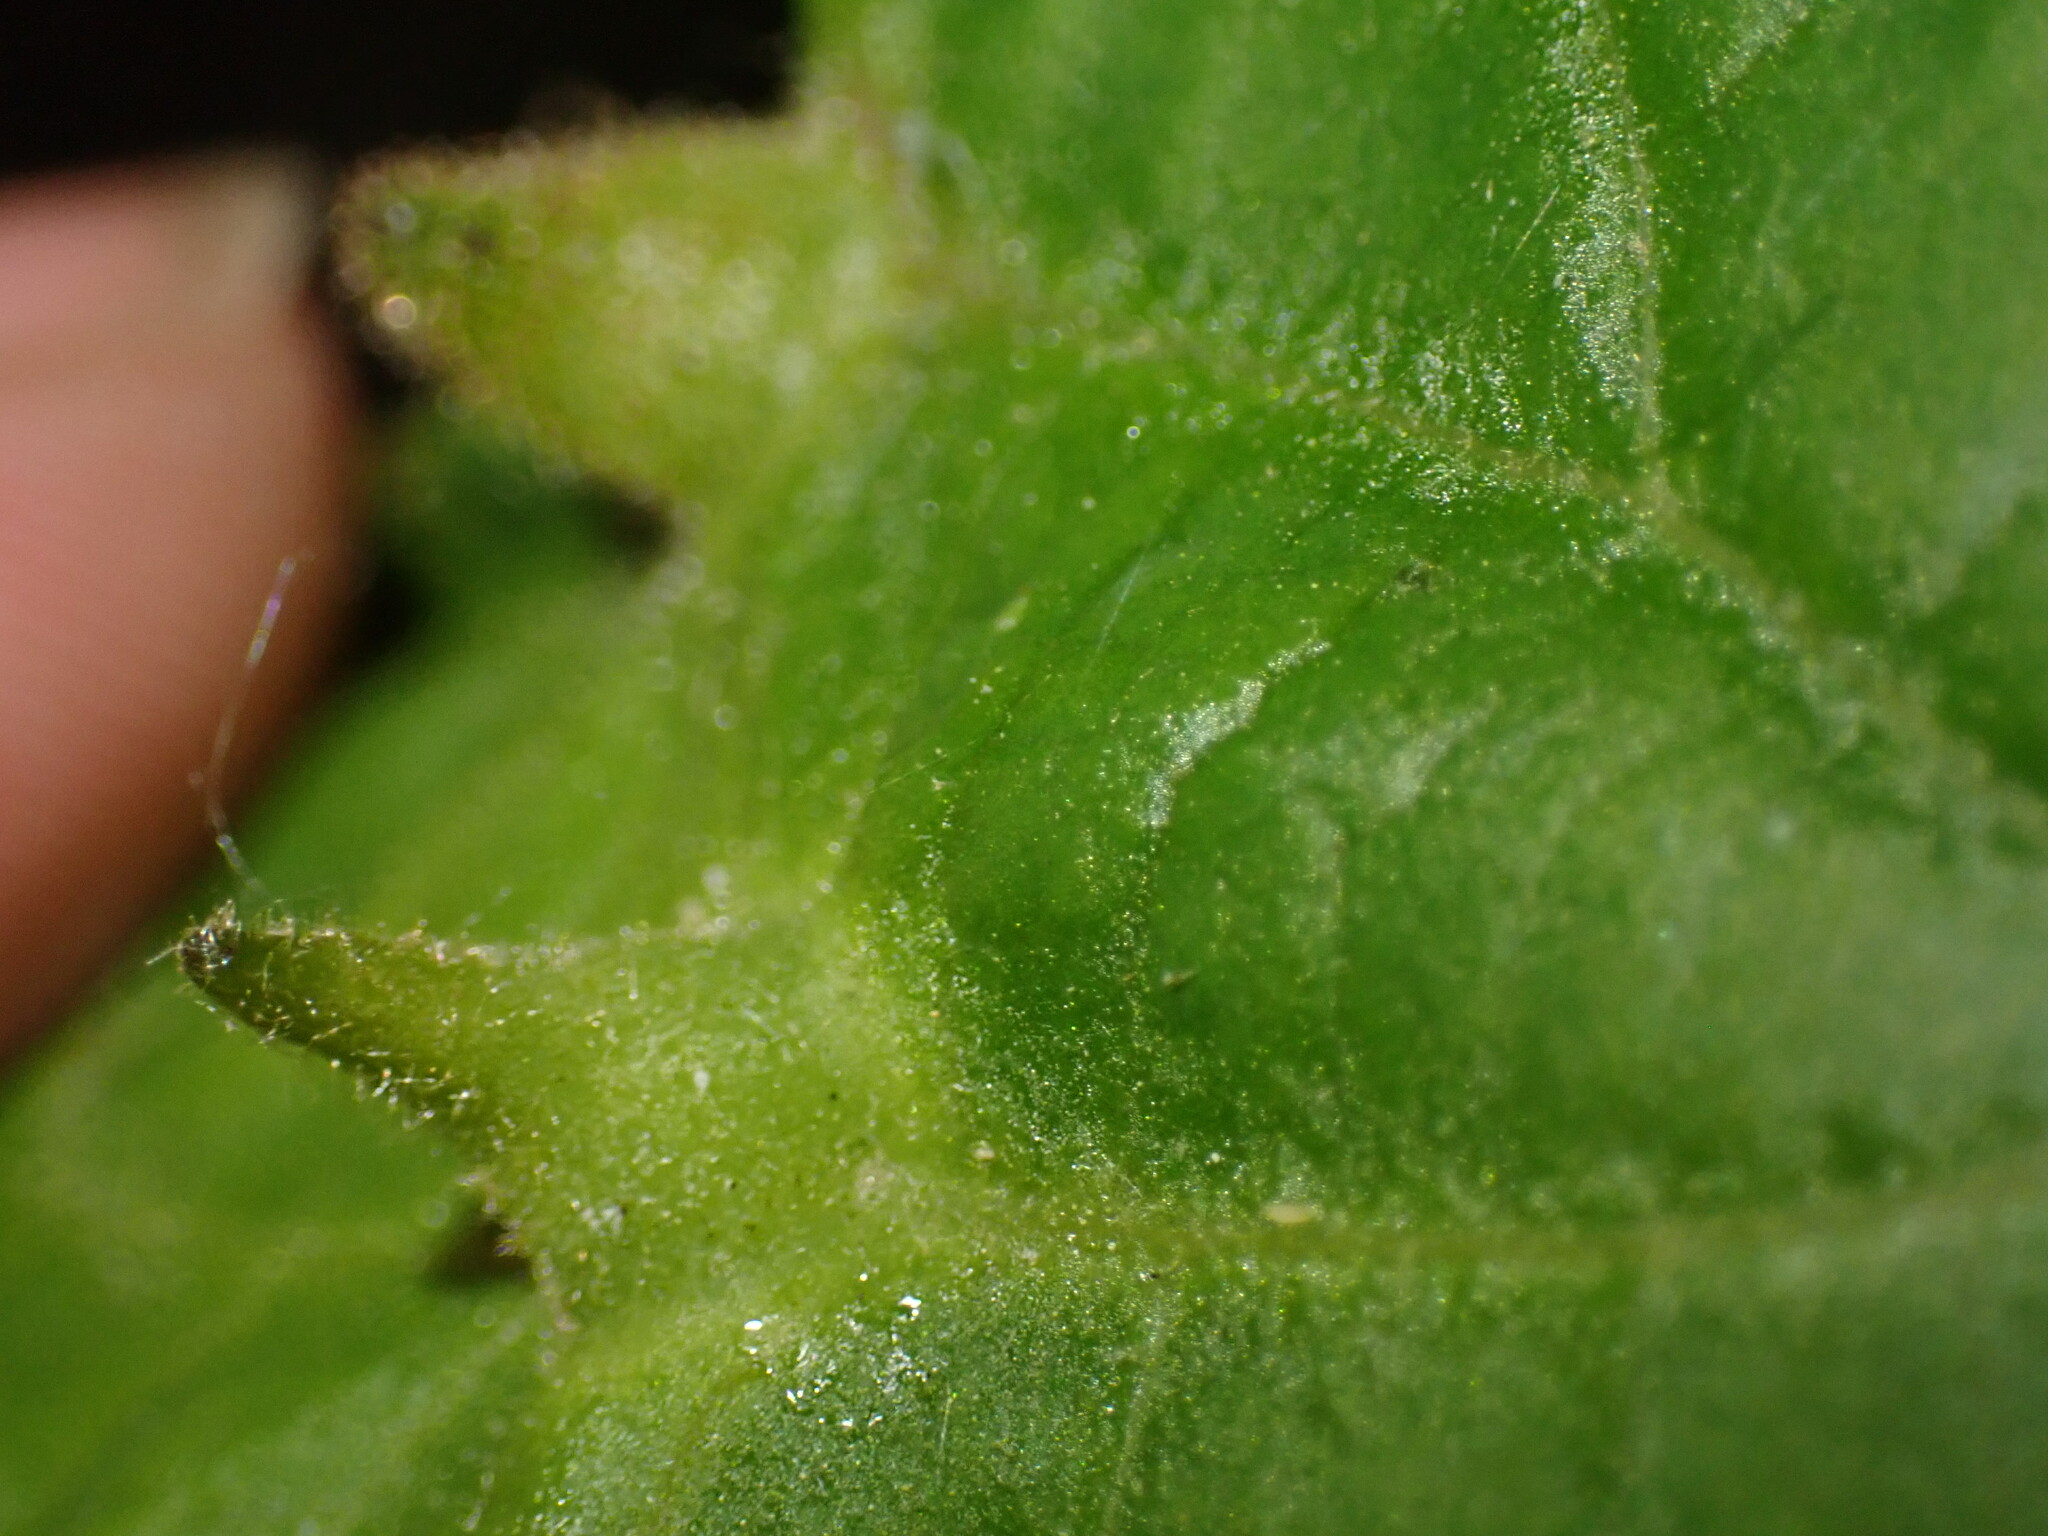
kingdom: Animalia
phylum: Arthropoda
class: Insecta
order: Hemiptera
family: Aphididae
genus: Hormaphis
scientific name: Hormaphis hamamelidis
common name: Witch-hazel cone gall aphid
